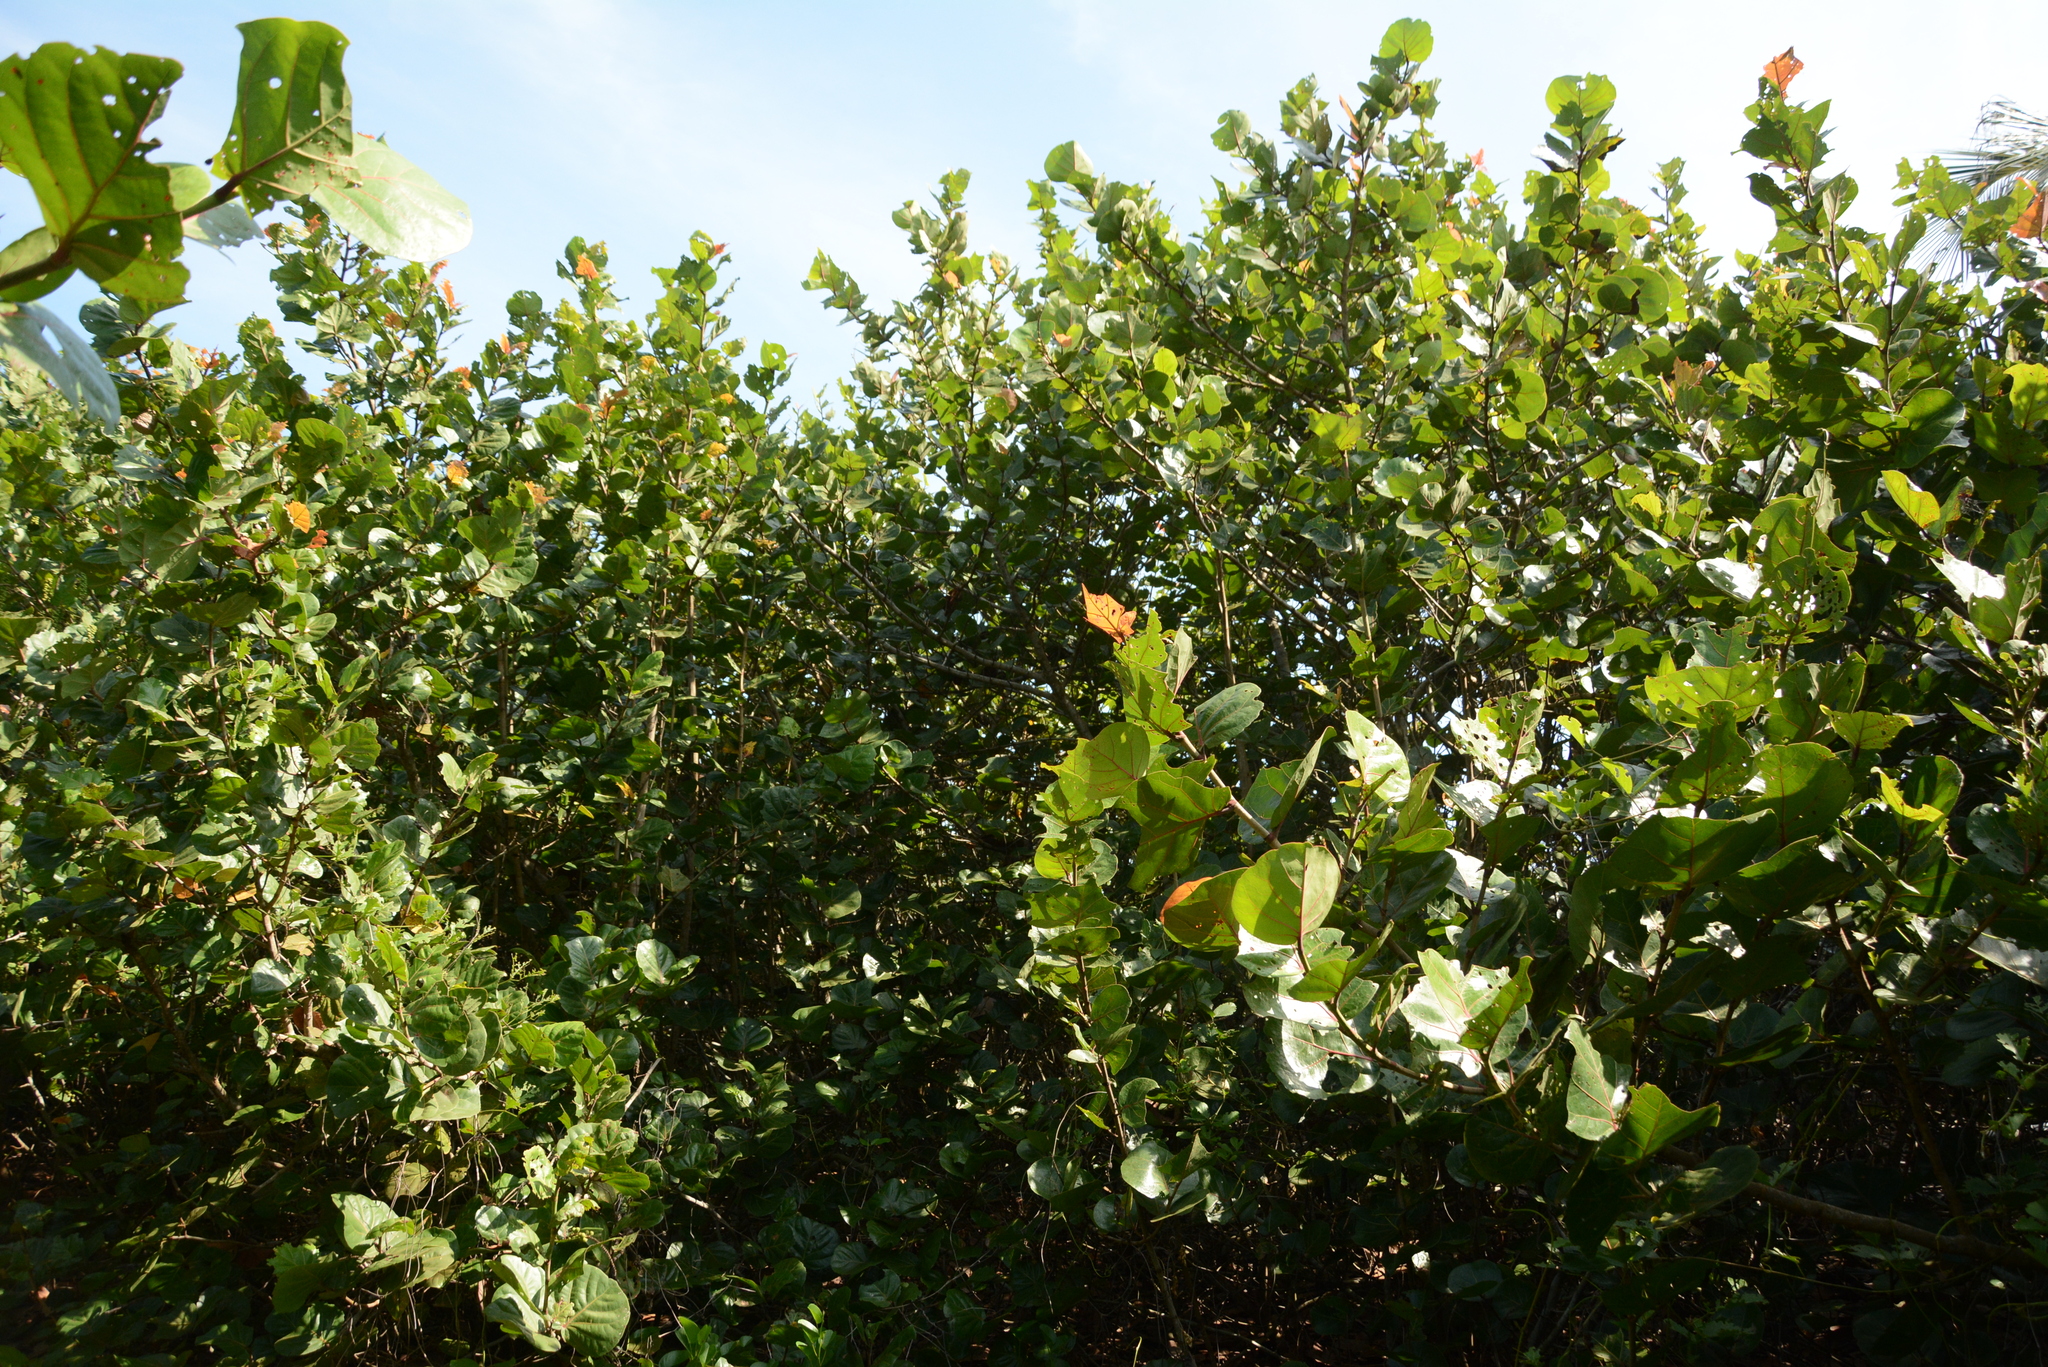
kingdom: Plantae
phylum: Tracheophyta
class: Magnoliopsida
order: Caryophyllales
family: Polygonaceae
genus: Coccoloba
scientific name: Coccoloba uvifera
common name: Seagrape
